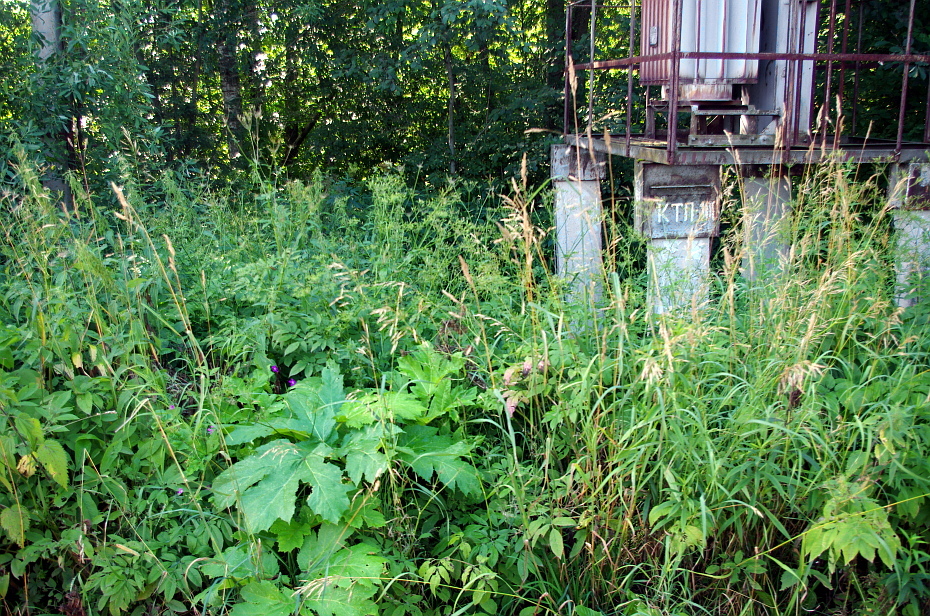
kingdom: Plantae
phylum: Tracheophyta
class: Magnoliopsida
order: Apiales
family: Apiaceae
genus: Heracleum
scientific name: Heracleum sosnowskyi
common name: Sosnowsky's hogweed
